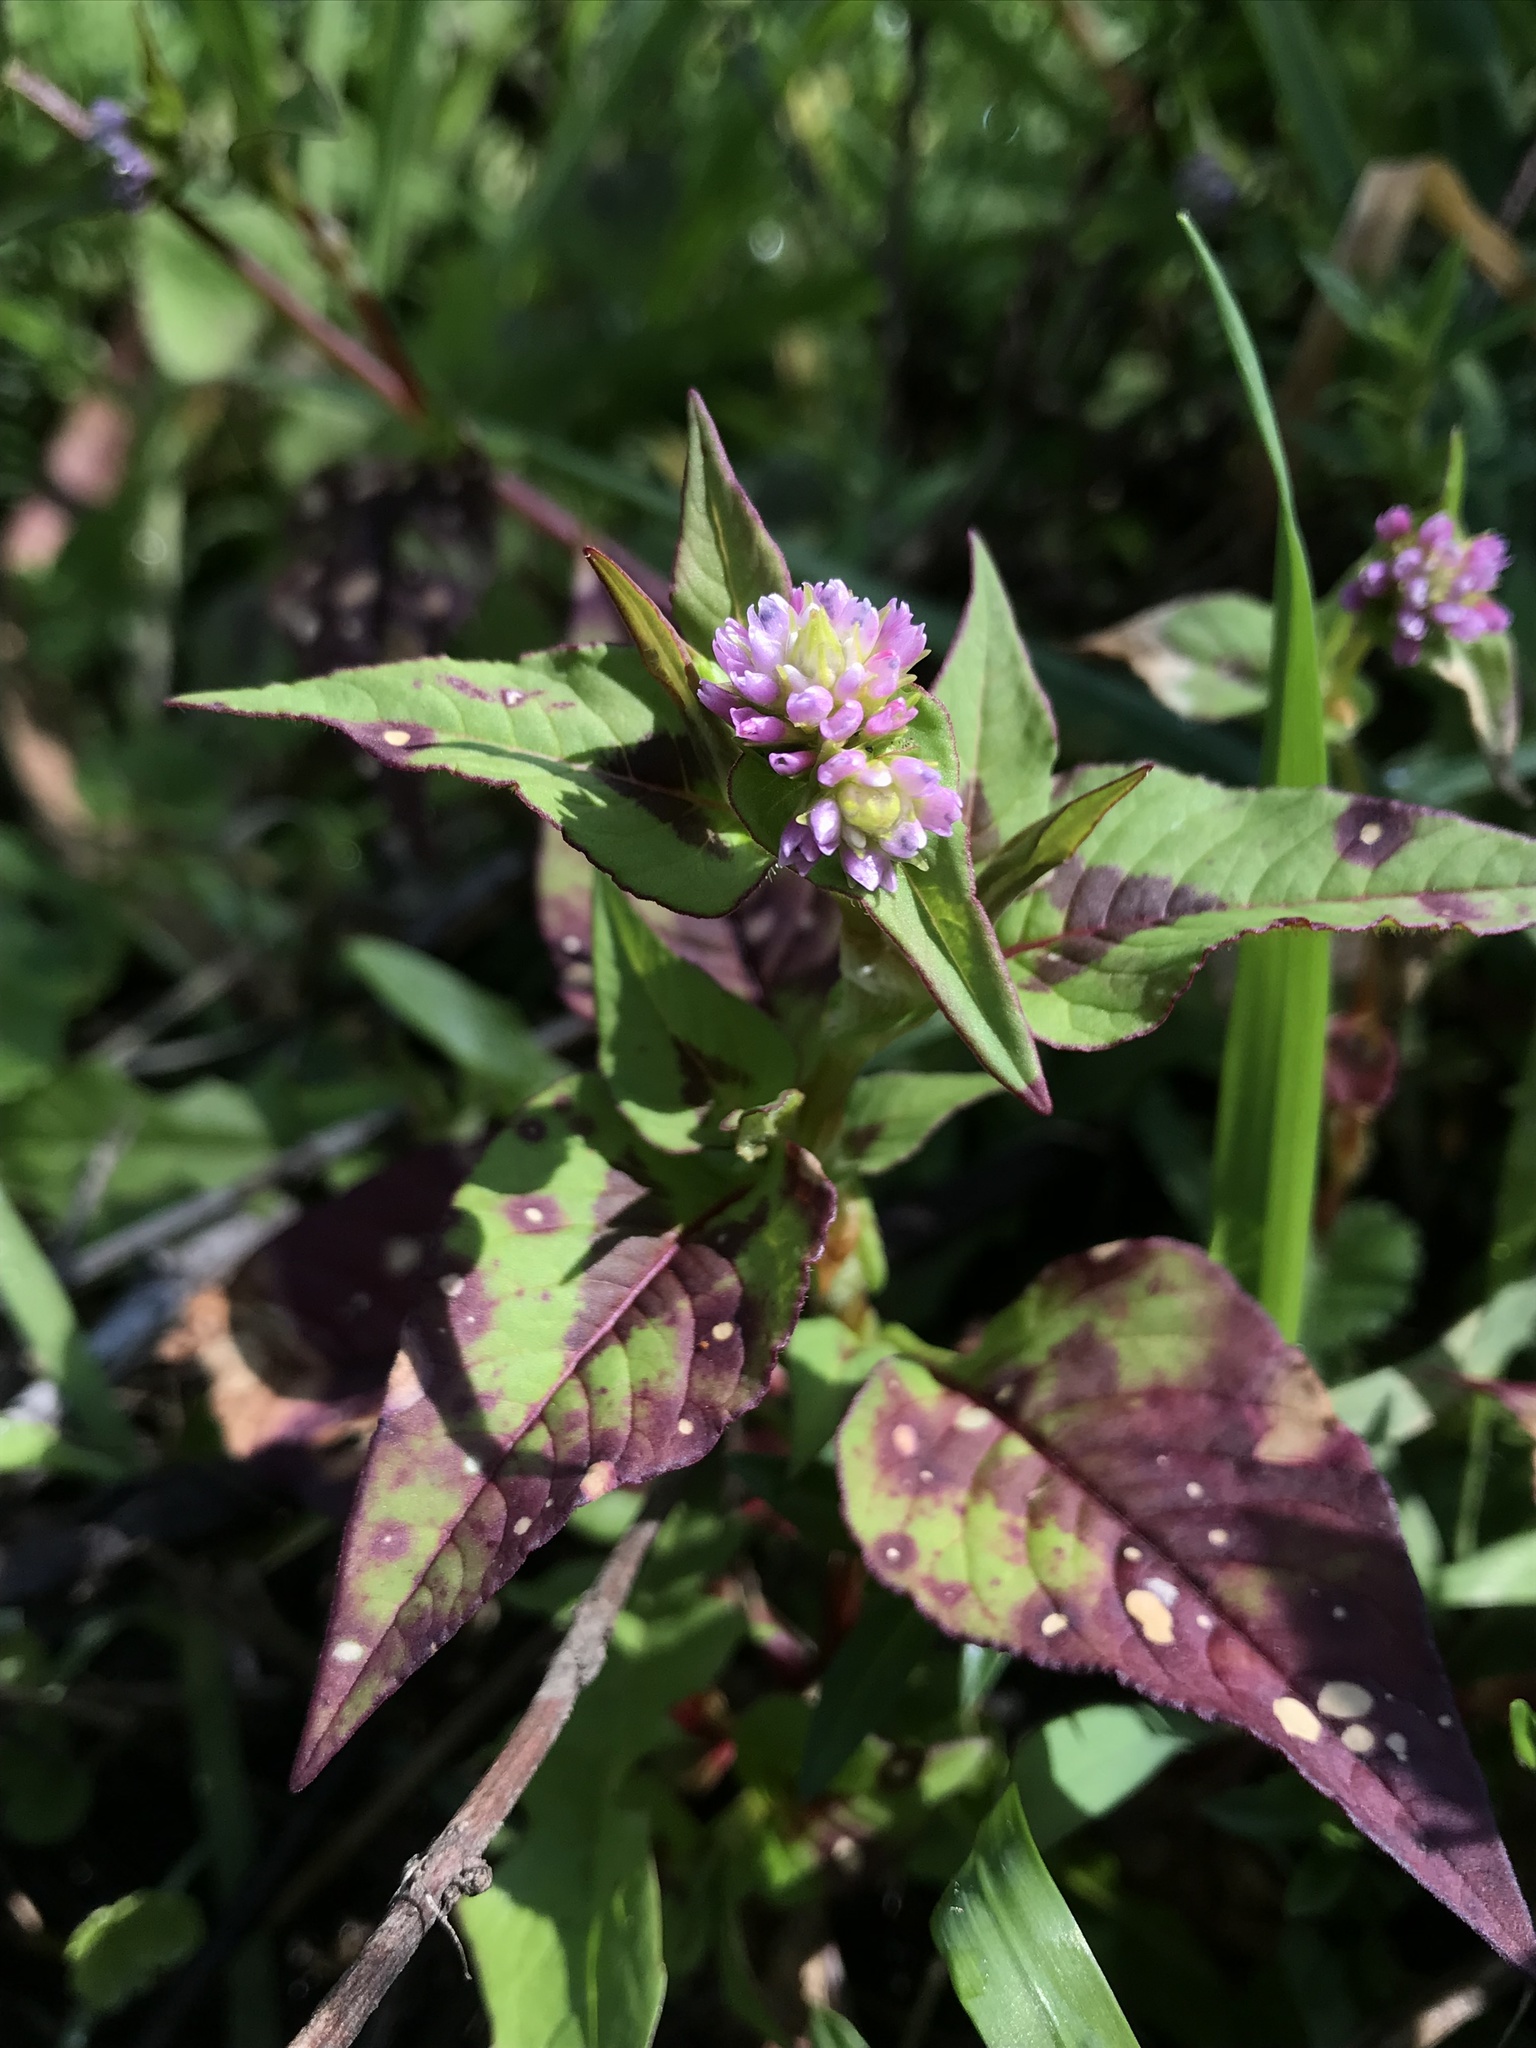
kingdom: Plantae
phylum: Tracheophyta
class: Magnoliopsida
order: Caryophyllales
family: Polygonaceae
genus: Persicaria
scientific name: Persicaria nepalensis
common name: Nepal persicaria
